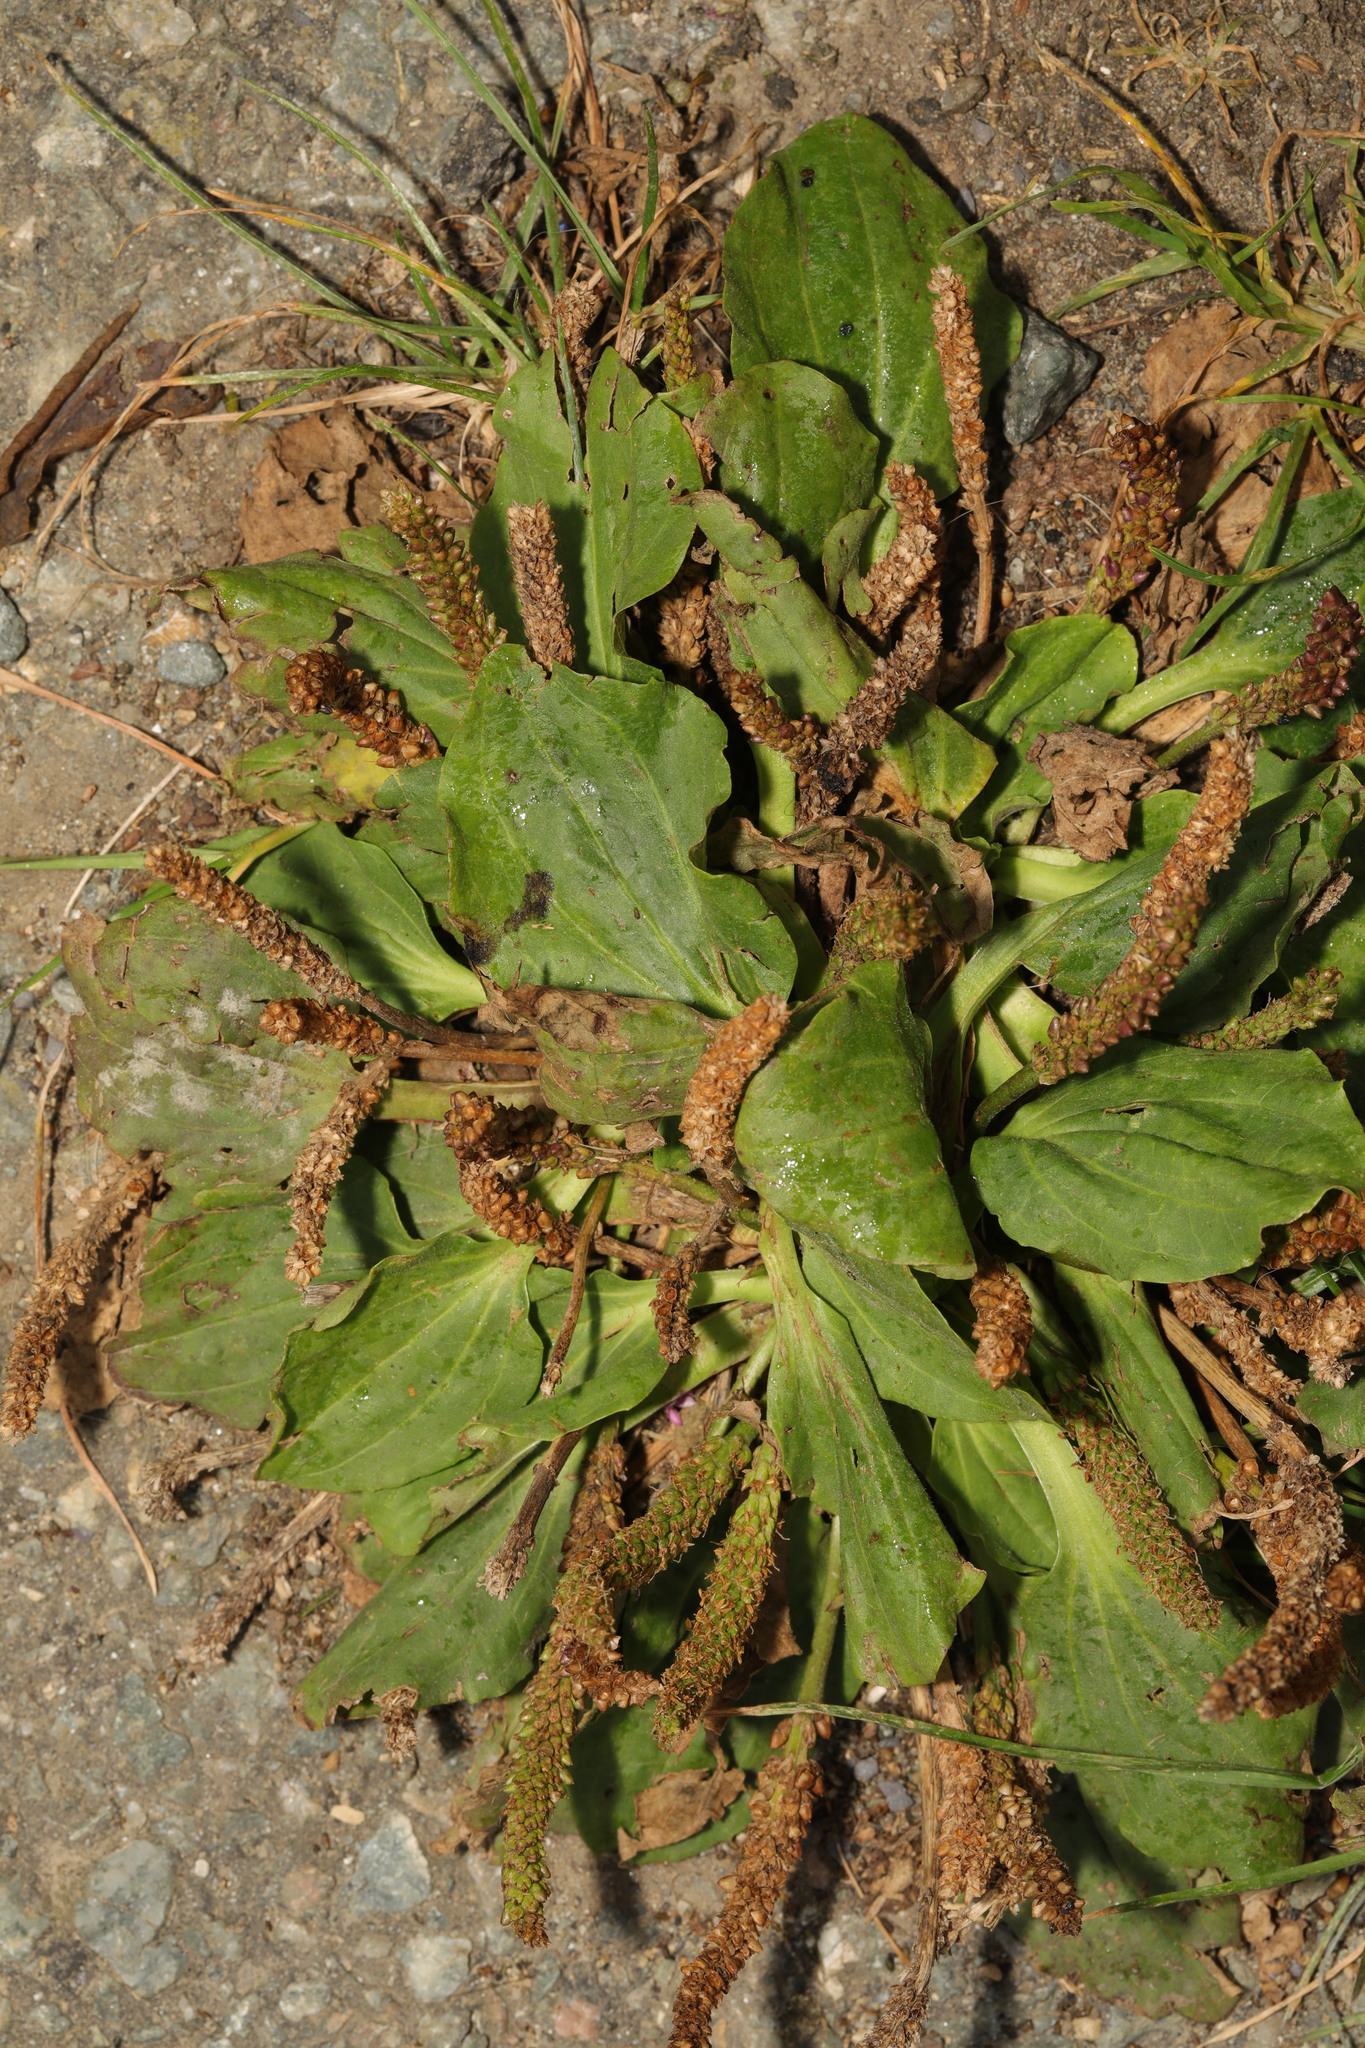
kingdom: Plantae
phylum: Tracheophyta
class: Magnoliopsida
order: Lamiales
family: Plantaginaceae
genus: Plantago
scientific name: Plantago major
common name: Common plantain
